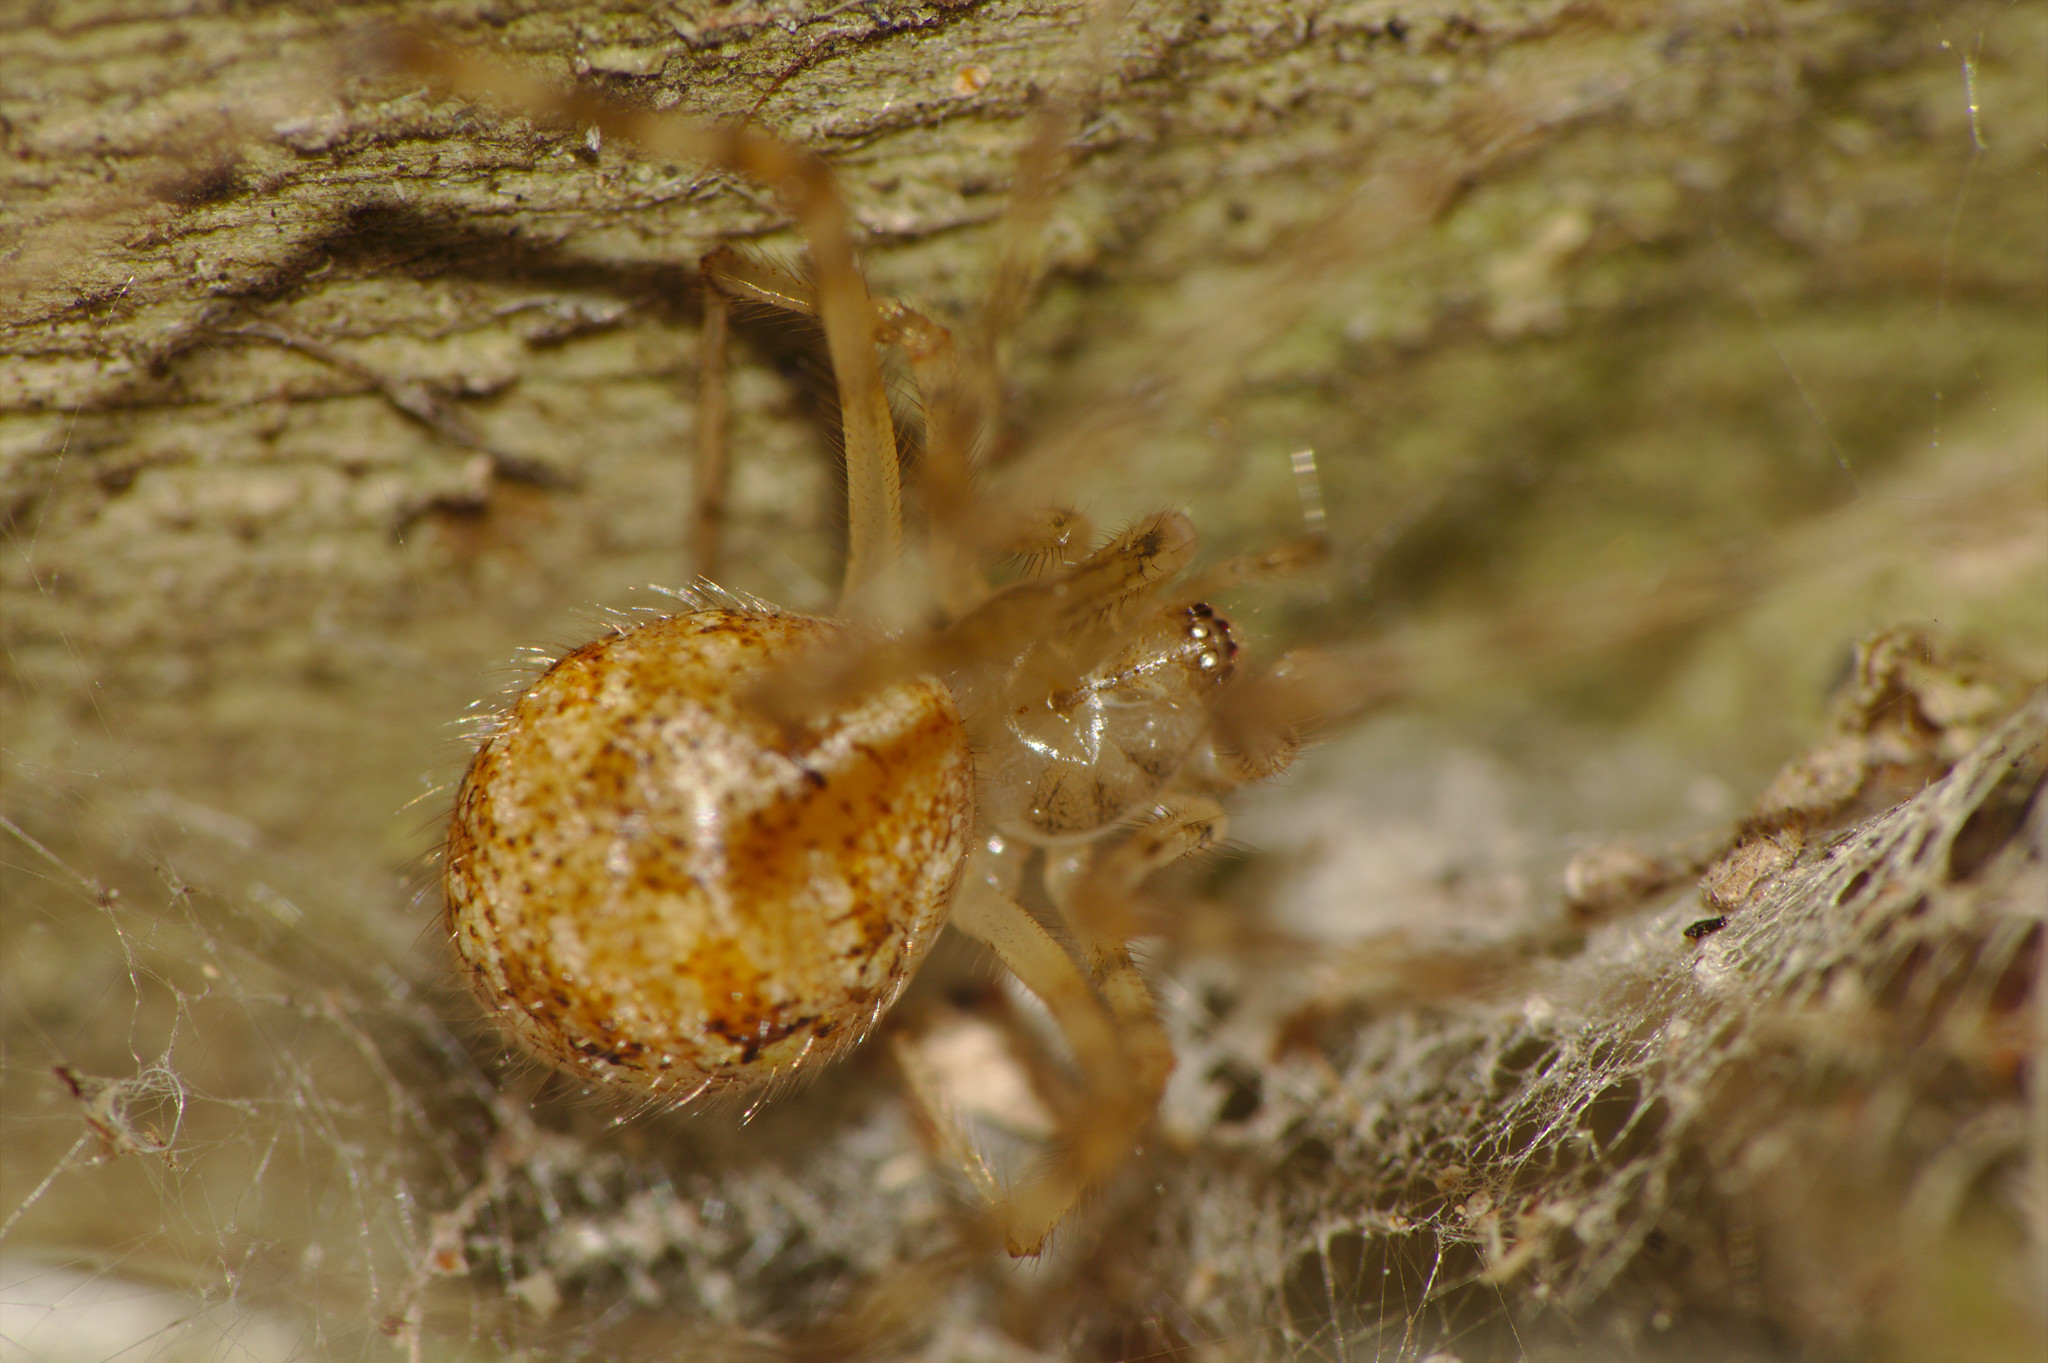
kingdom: Animalia
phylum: Arthropoda
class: Arachnida
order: Araneae
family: Theridiidae
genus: Cryptachaea
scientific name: Cryptachaea gigantipes
